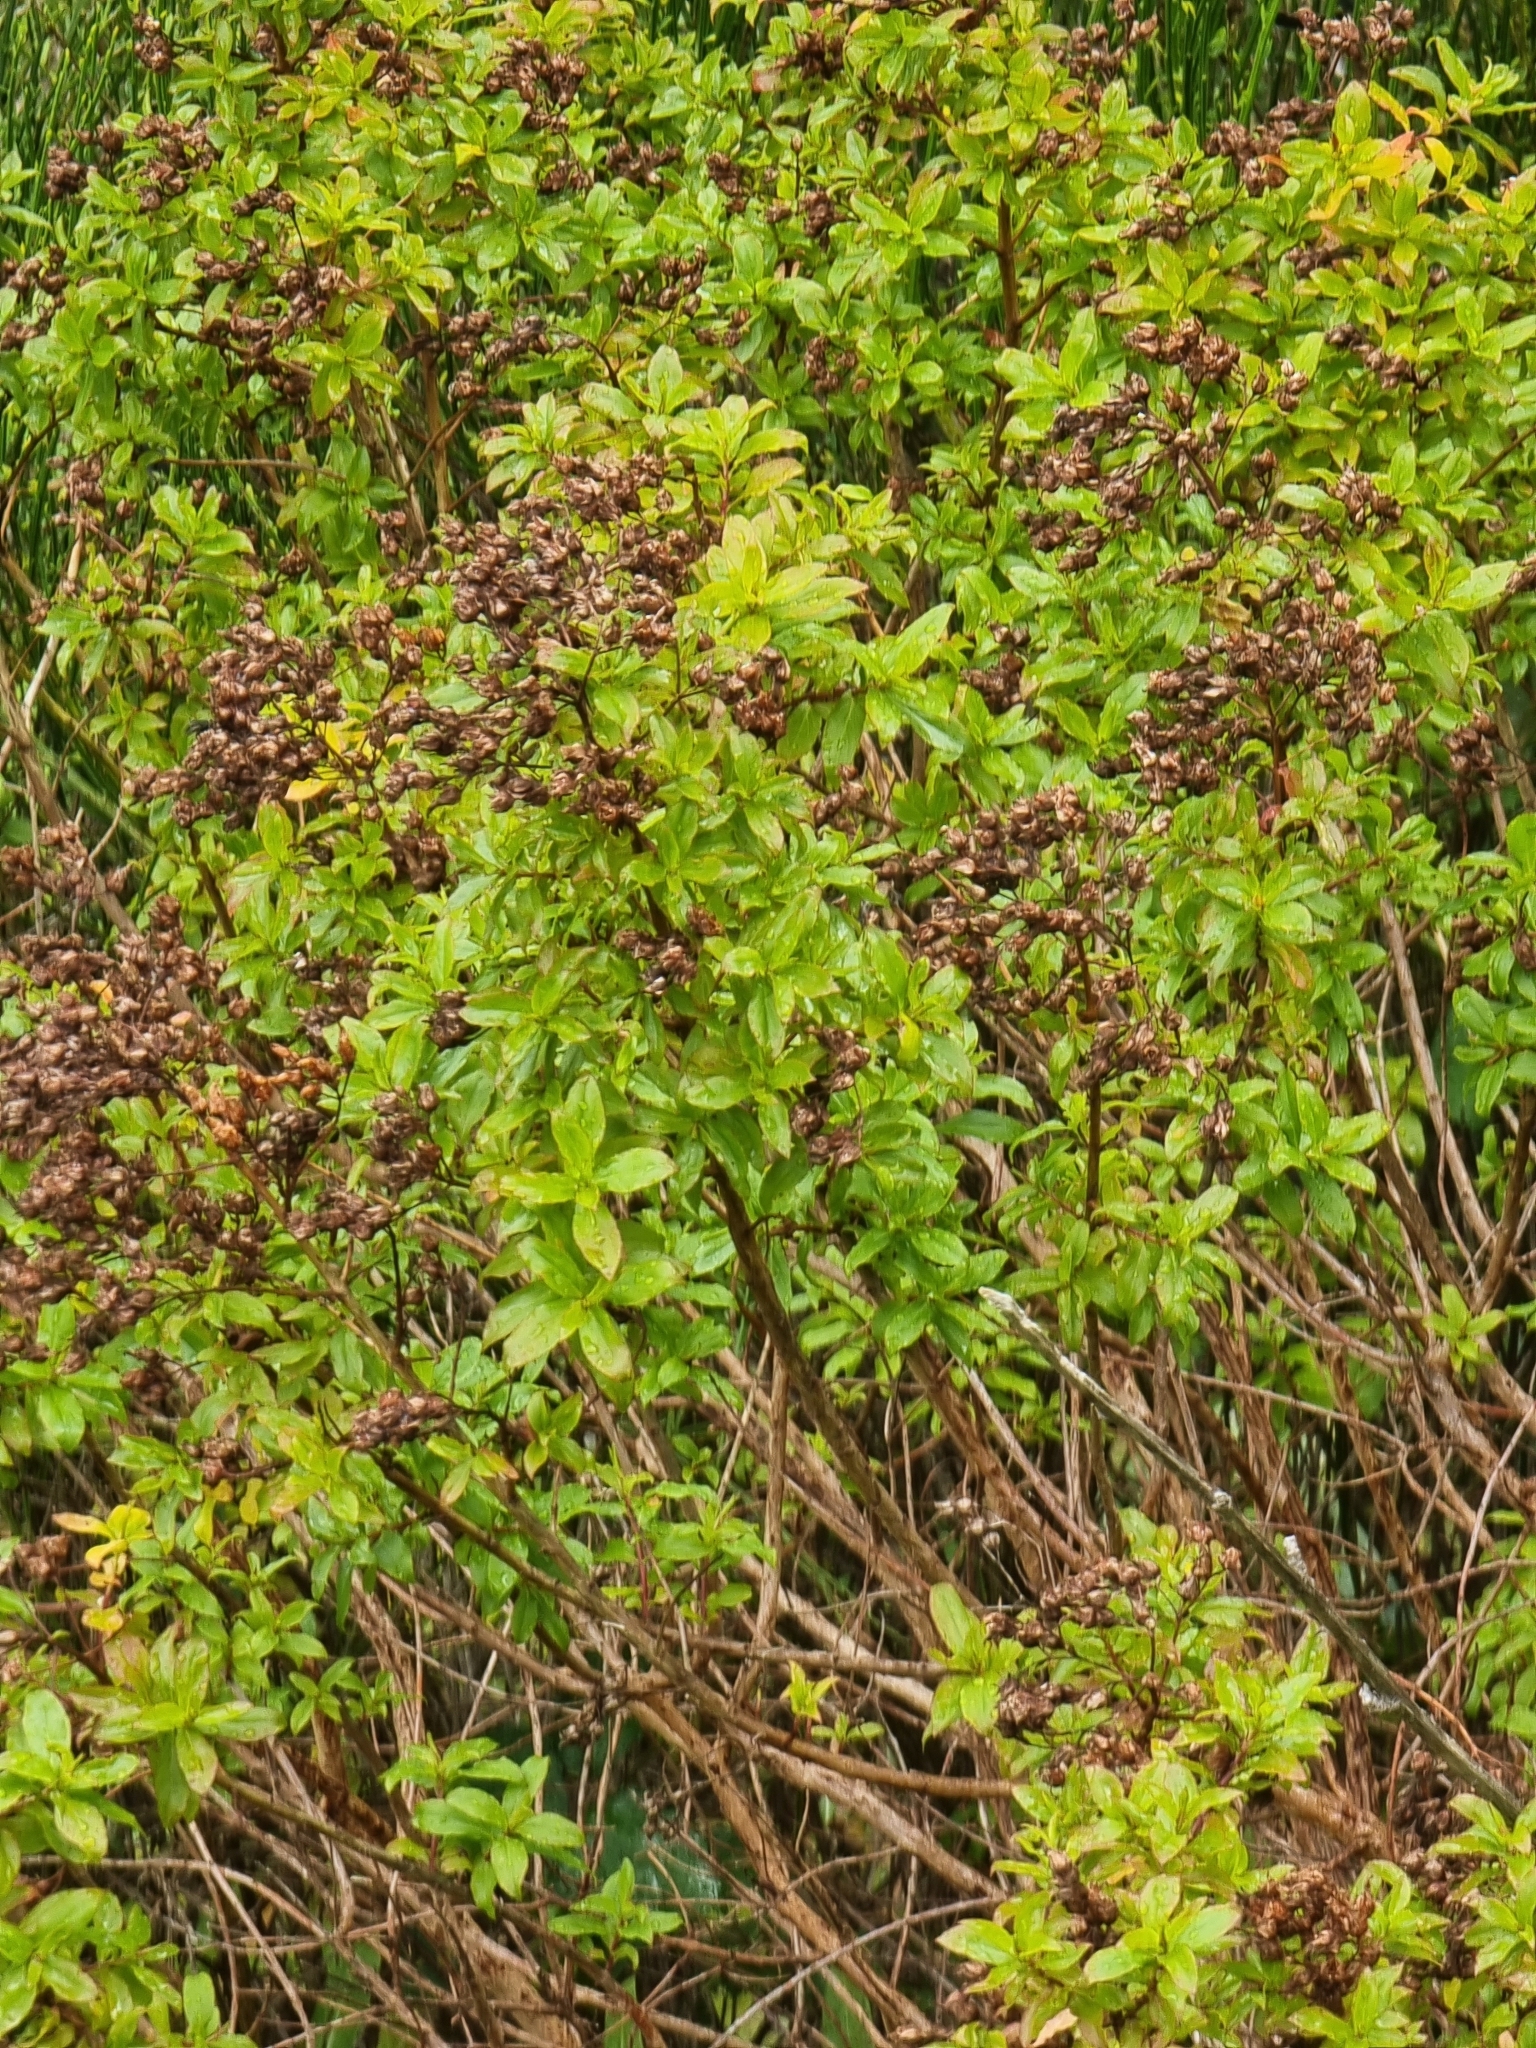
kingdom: Plantae
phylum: Tracheophyta
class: Magnoliopsida
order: Malpighiales
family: Hypericaceae
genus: Hypericum
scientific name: Hypericum glandulosum
